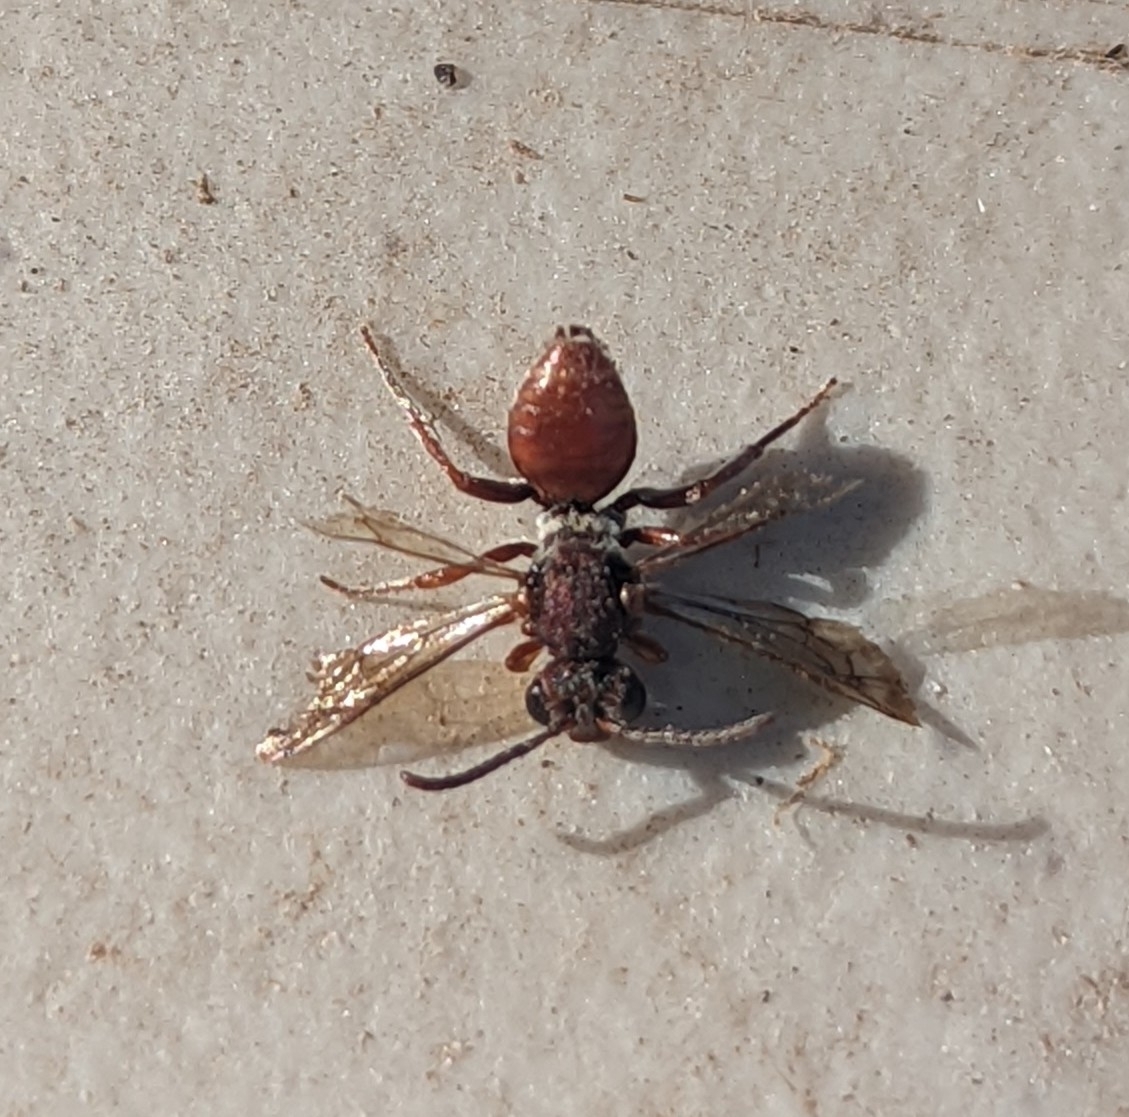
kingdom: Animalia
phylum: Arthropoda
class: Insecta
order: Hymenoptera
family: Apidae
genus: Nomada
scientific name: Nomada
